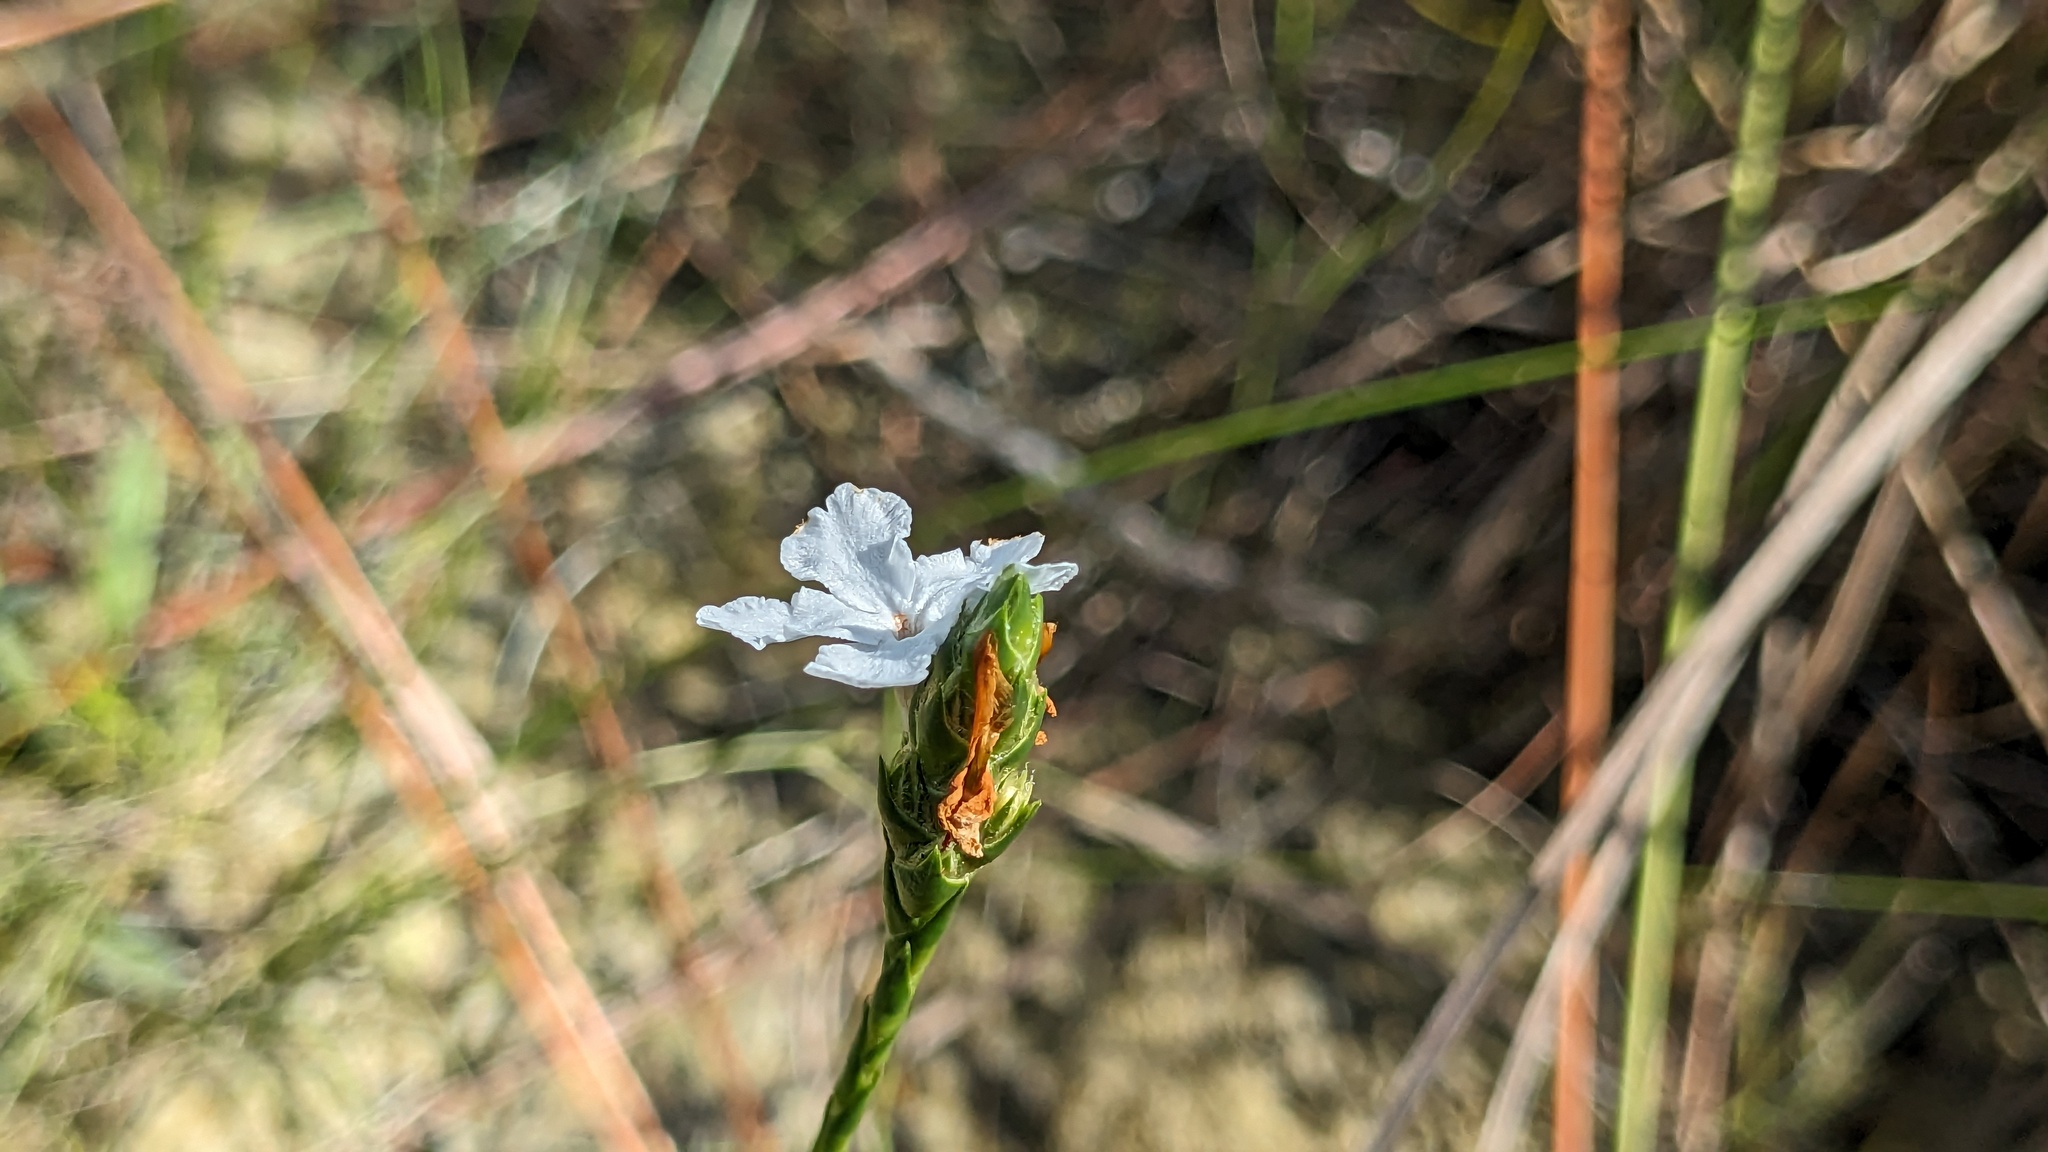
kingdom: Plantae
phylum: Tracheophyta
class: Magnoliopsida
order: Lamiales
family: Acanthaceae
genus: Elytraria
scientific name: Elytraria caroliniensis
